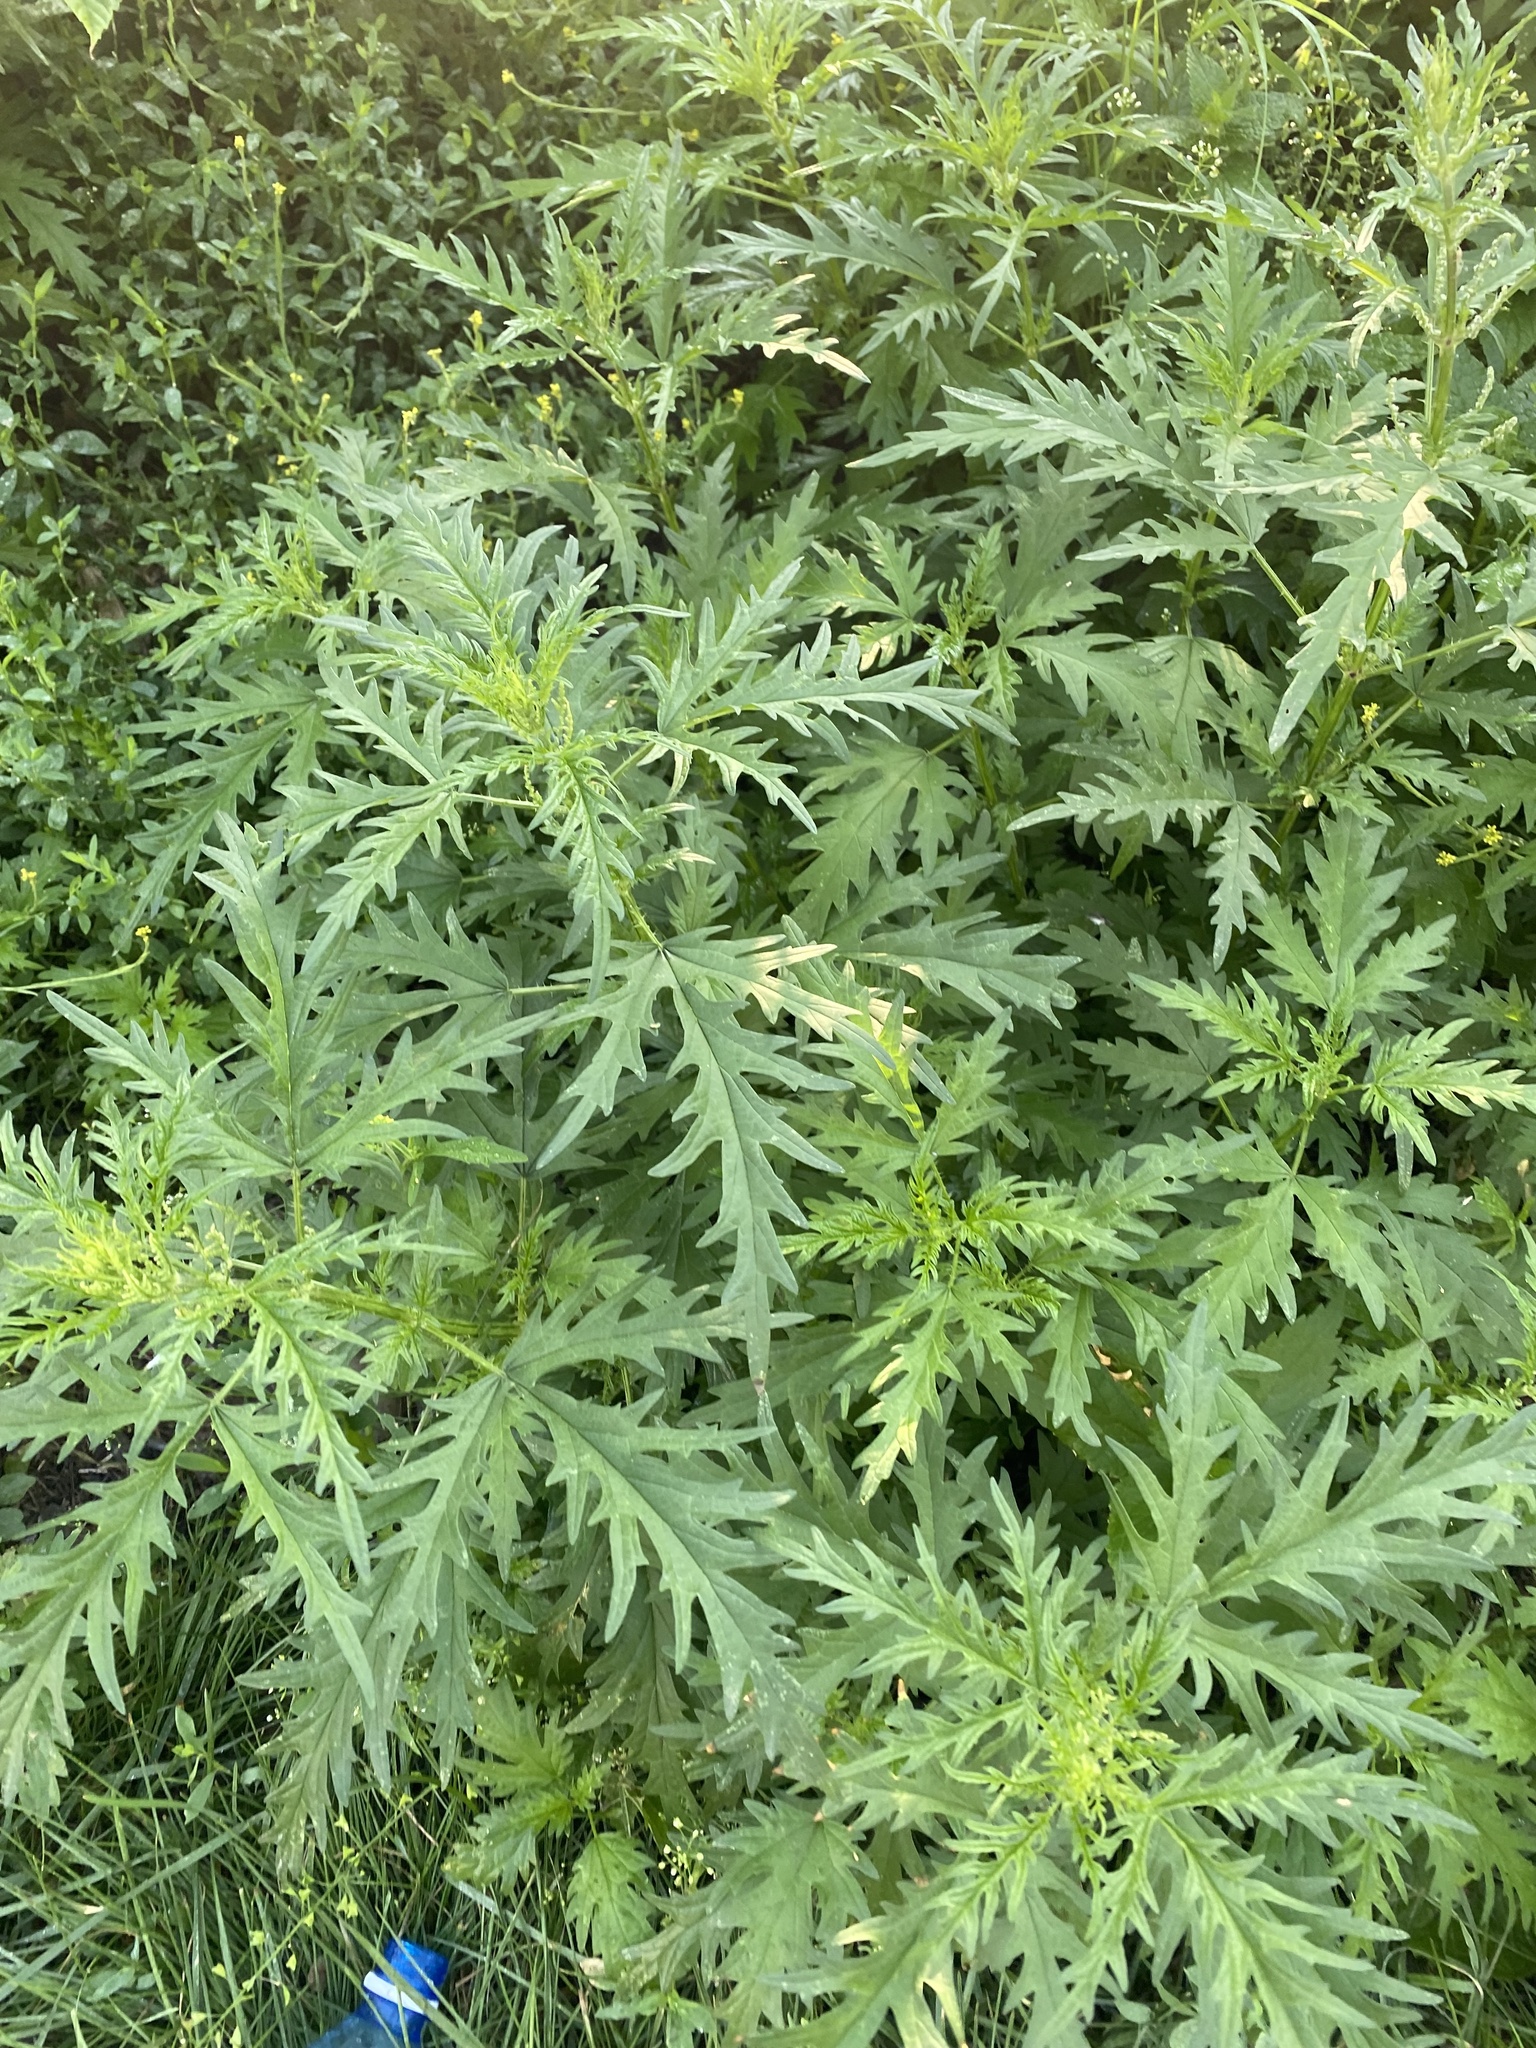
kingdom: Plantae
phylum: Tracheophyta
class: Magnoliopsida
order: Rosales
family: Urticaceae
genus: Urtica
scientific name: Urtica cannabina
